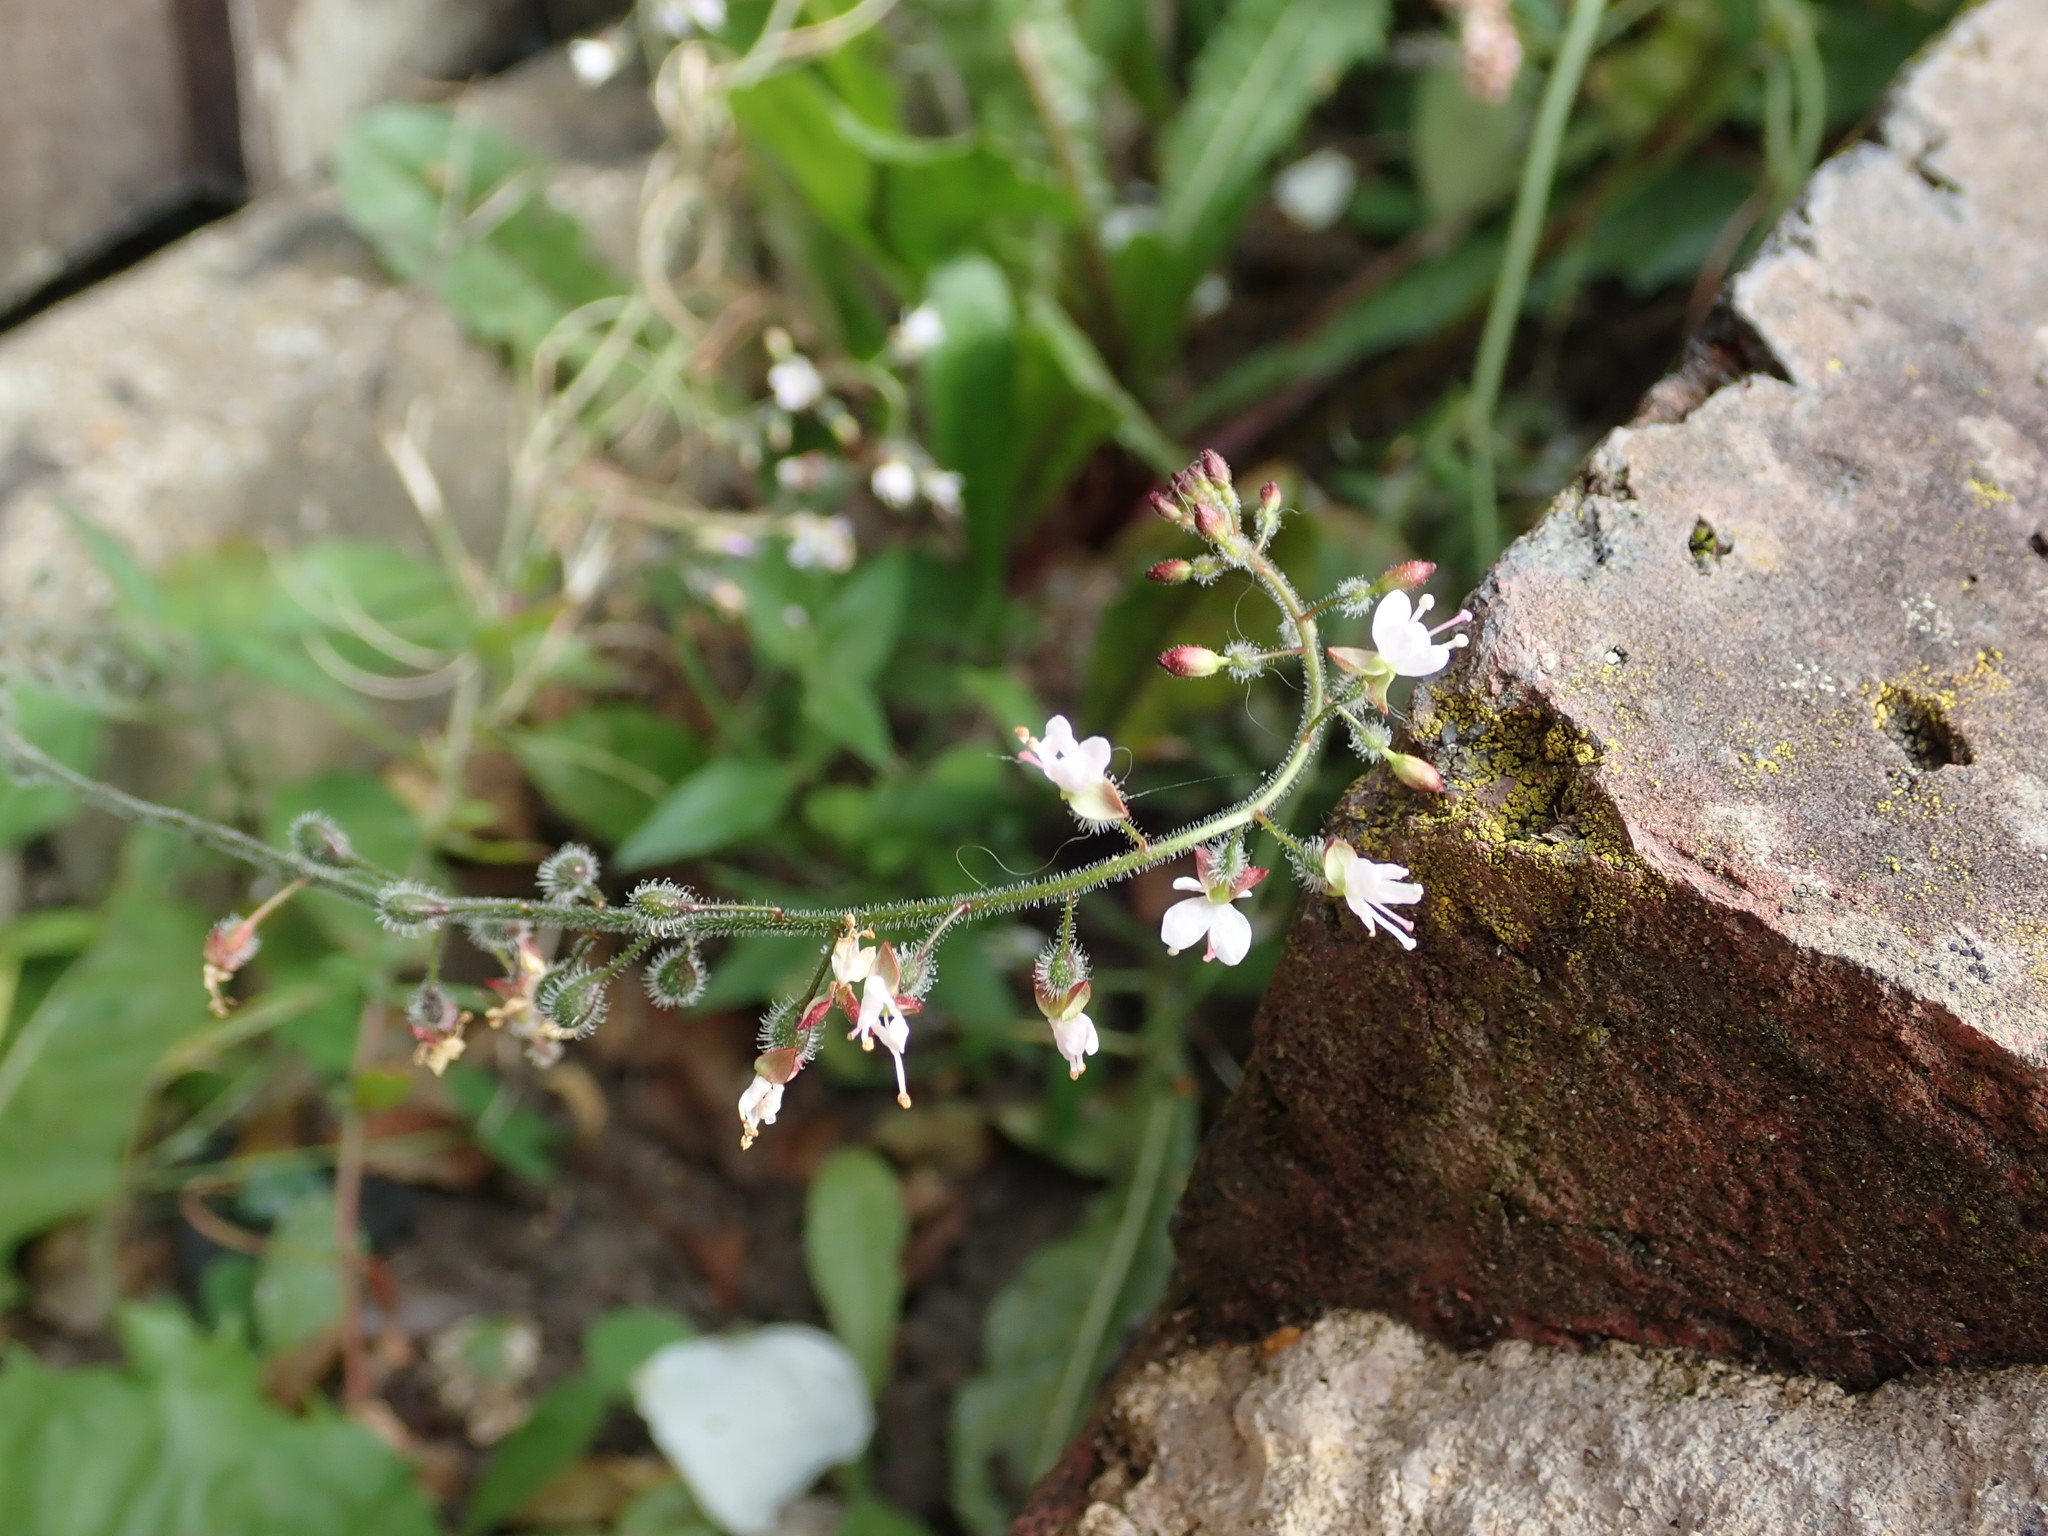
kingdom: Plantae
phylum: Tracheophyta
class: Magnoliopsida
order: Myrtales
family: Onagraceae
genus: Circaea
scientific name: Circaea lutetiana
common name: Enchanter's-nightshade
